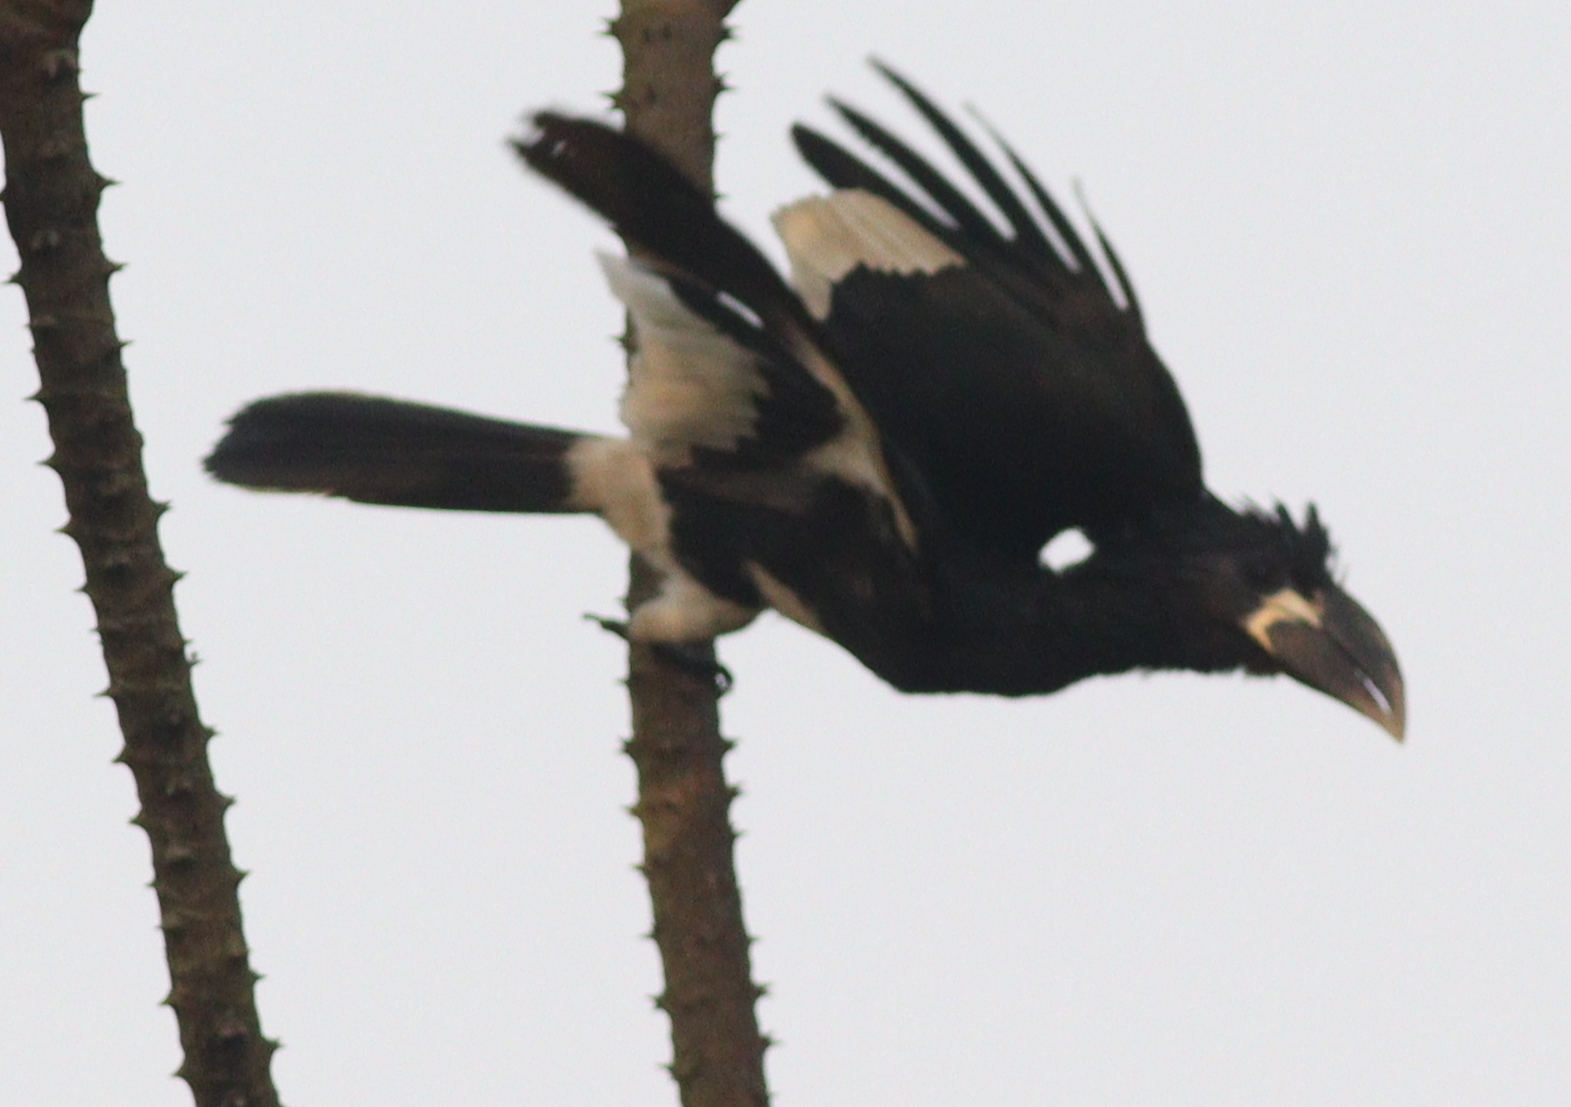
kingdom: Animalia
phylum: Chordata
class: Aves
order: Bucerotiformes
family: Bucerotidae
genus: Bycanistes
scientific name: Bycanistes fistulator
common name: Piping hornbill
